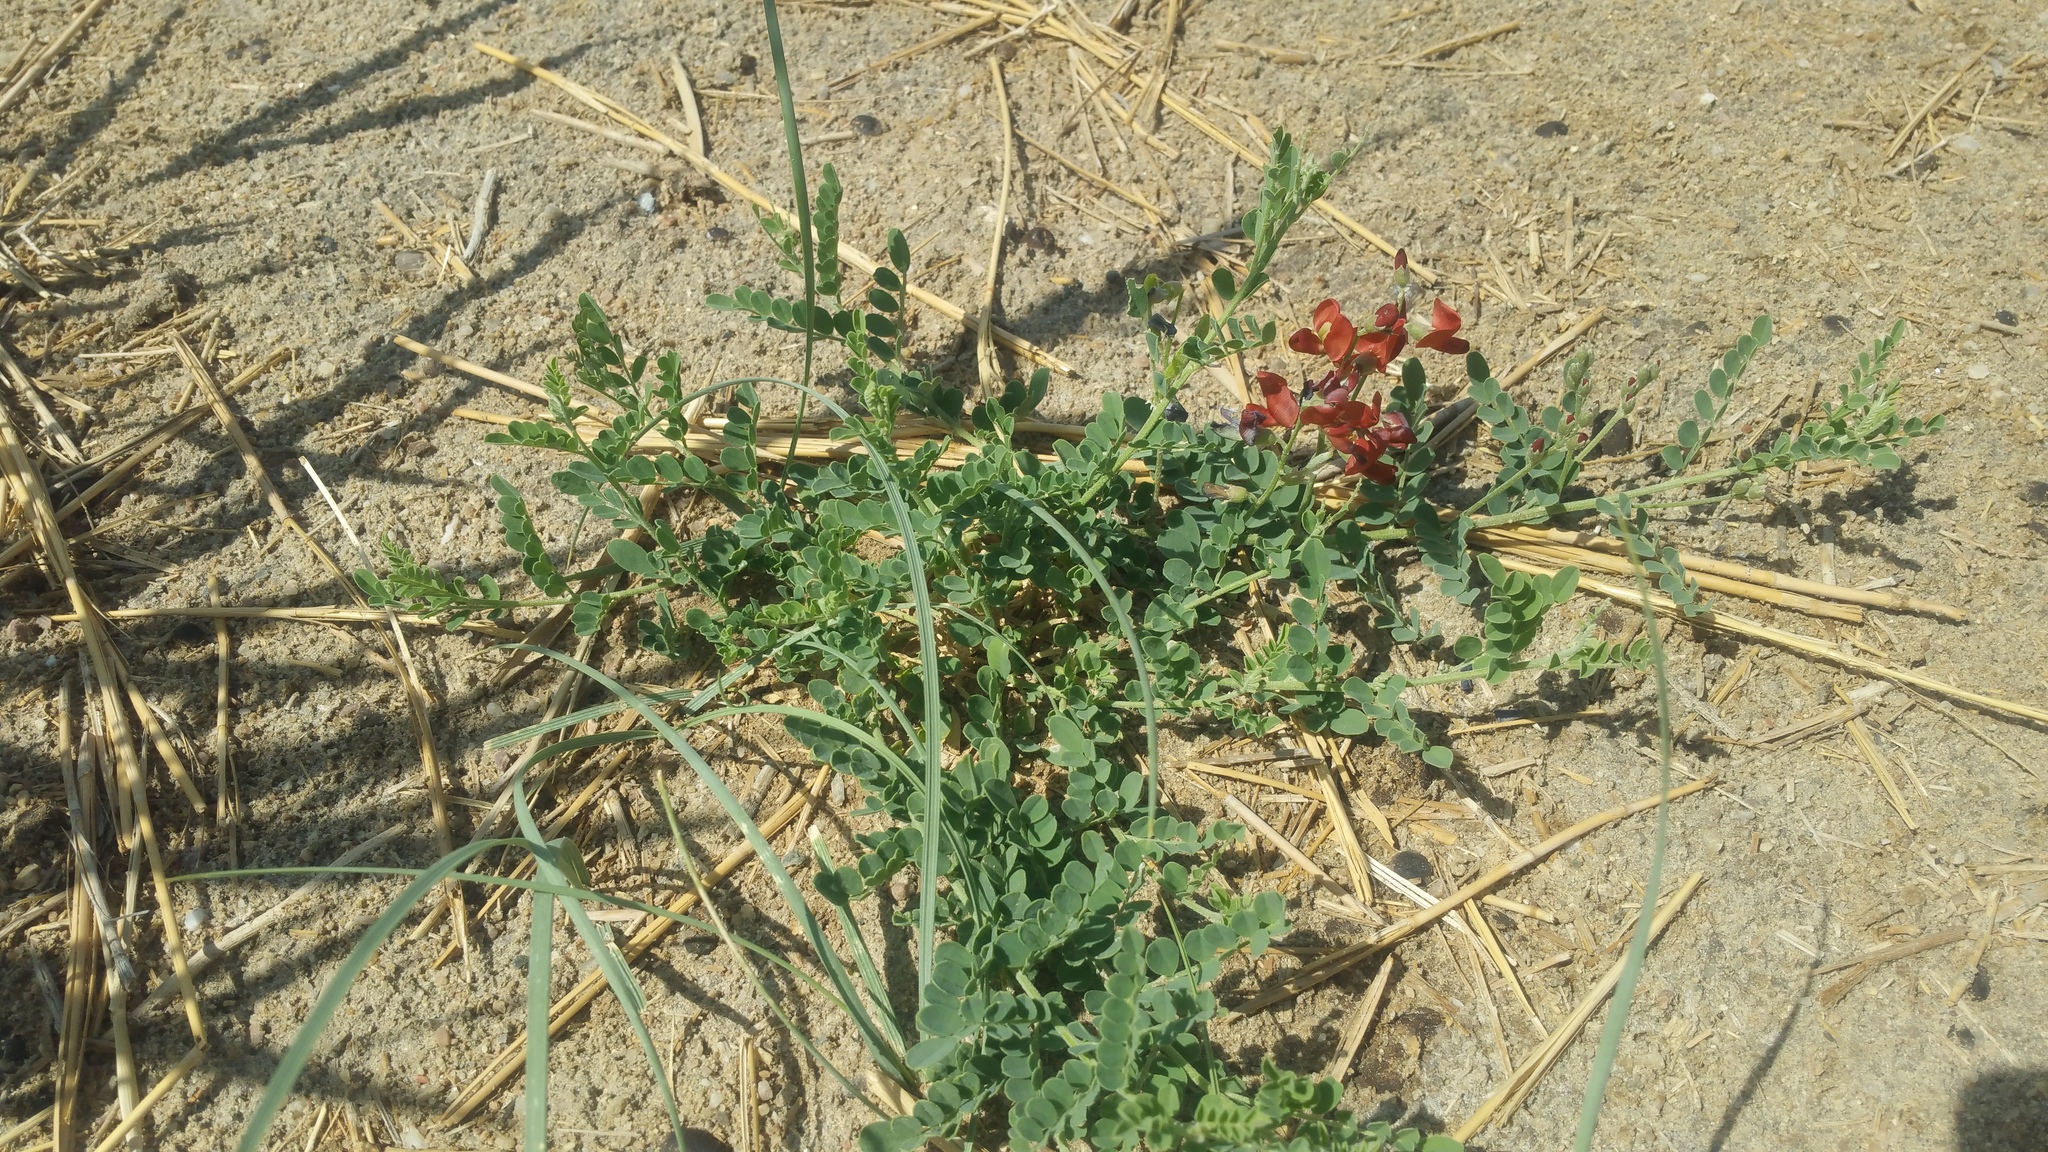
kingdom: Plantae
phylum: Tracheophyta
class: Magnoliopsida
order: Fabales
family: Fabaceae
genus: Sphaerophysa
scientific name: Sphaerophysa salsula
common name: Alkali swainsonpea
